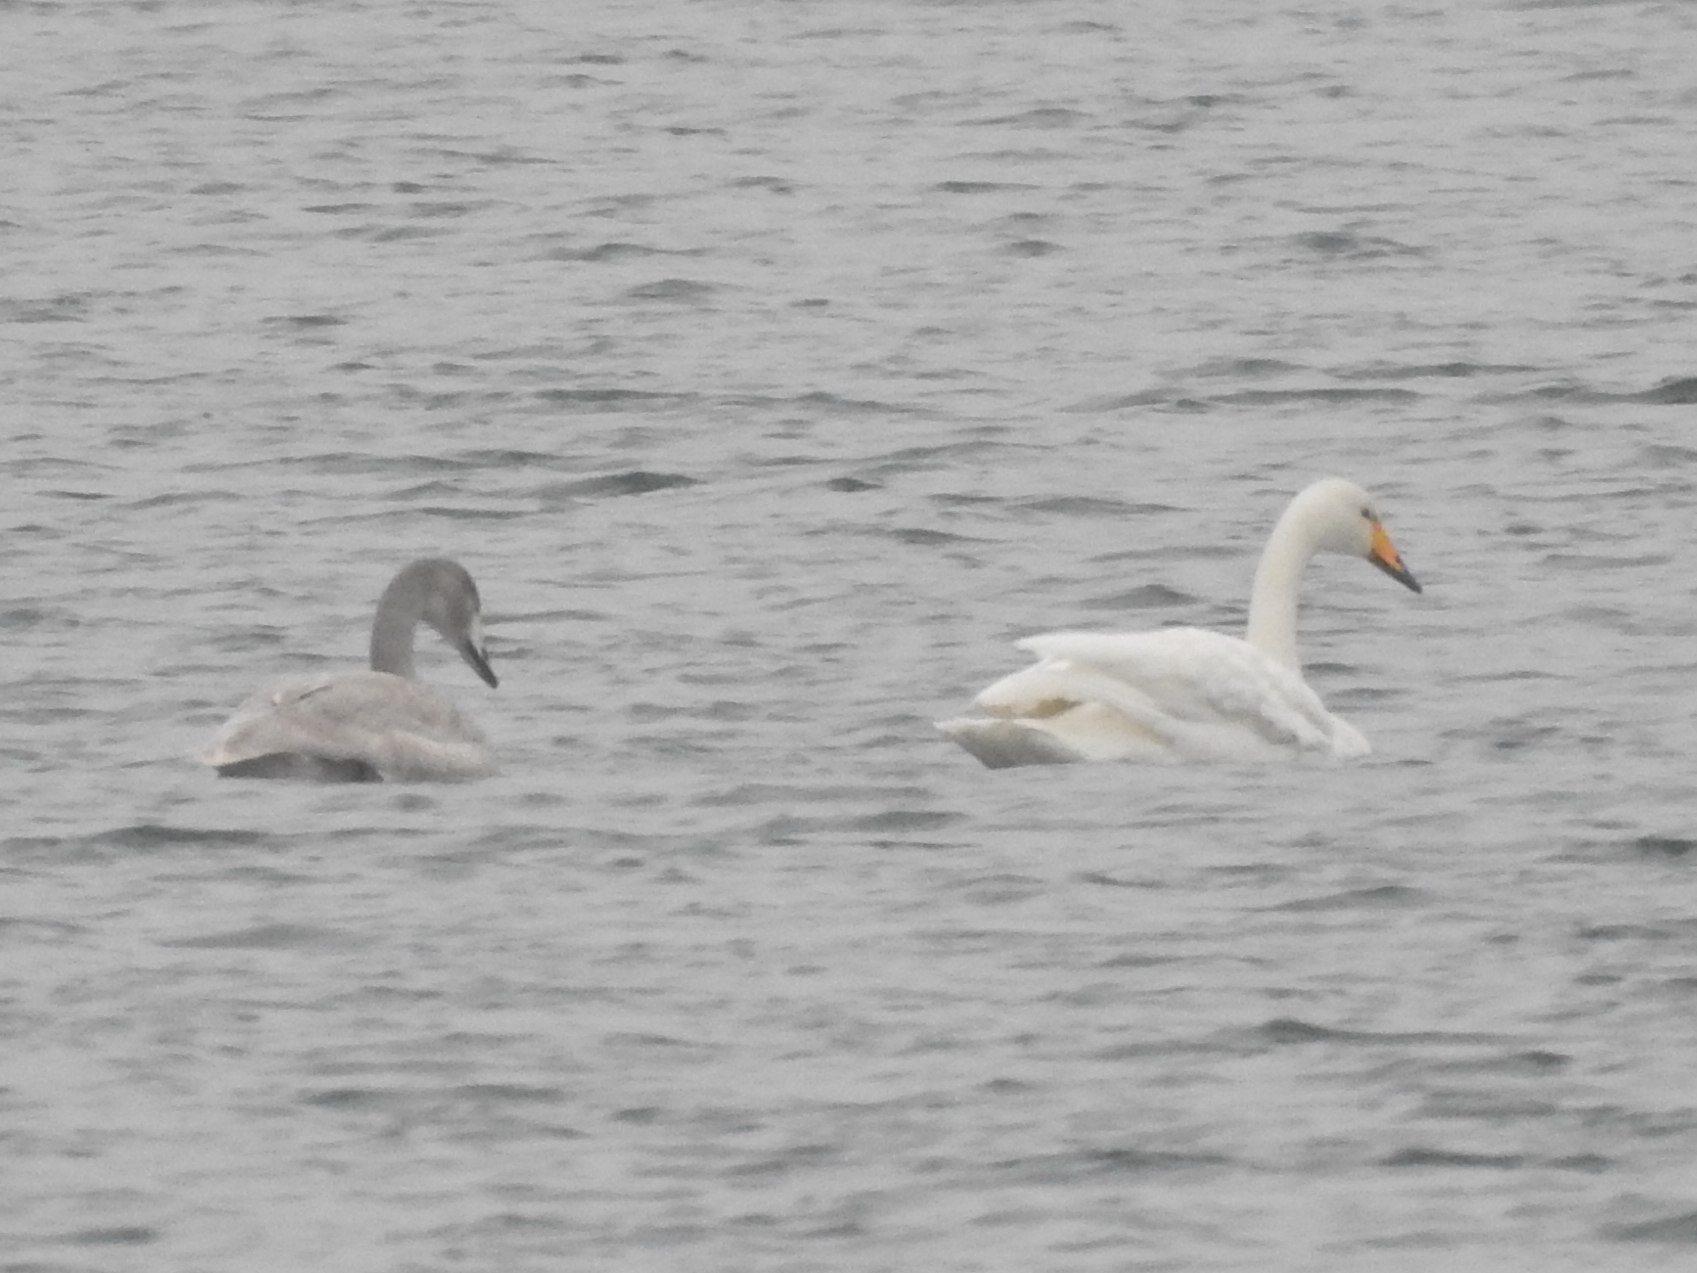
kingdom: Animalia
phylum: Chordata
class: Aves
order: Anseriformes
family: Anatidae
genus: Cygnus
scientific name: Cygnus cygnus
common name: Whooper swan
